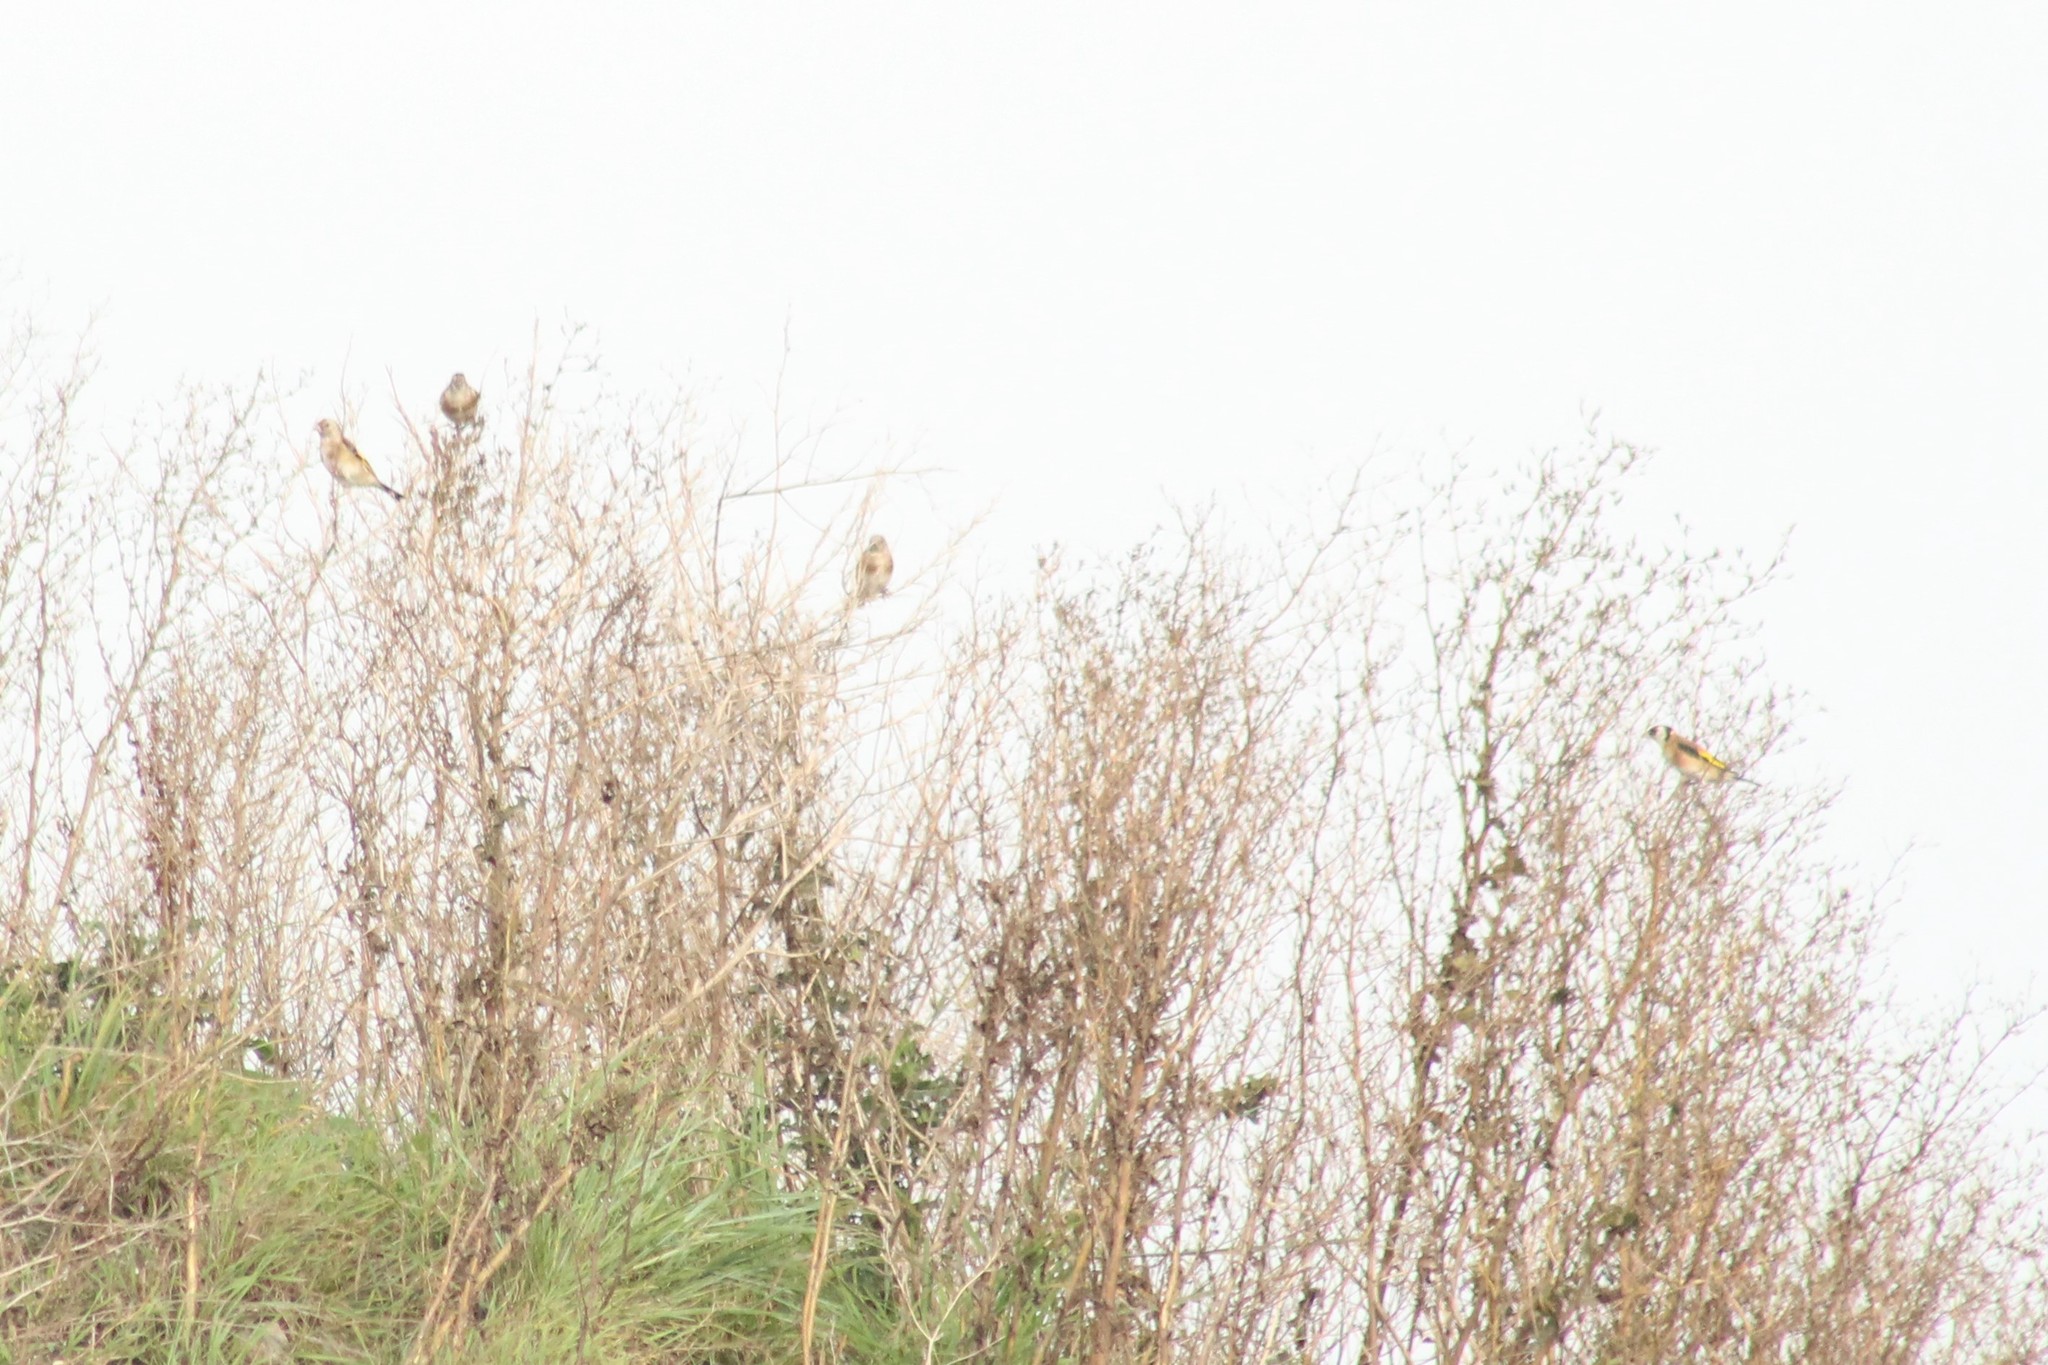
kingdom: Animalia
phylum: Chordata
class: Aves
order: Passeriformes
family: Fringillidae
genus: Carduelis
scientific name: Carduelis carduelis
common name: European goldfinch
